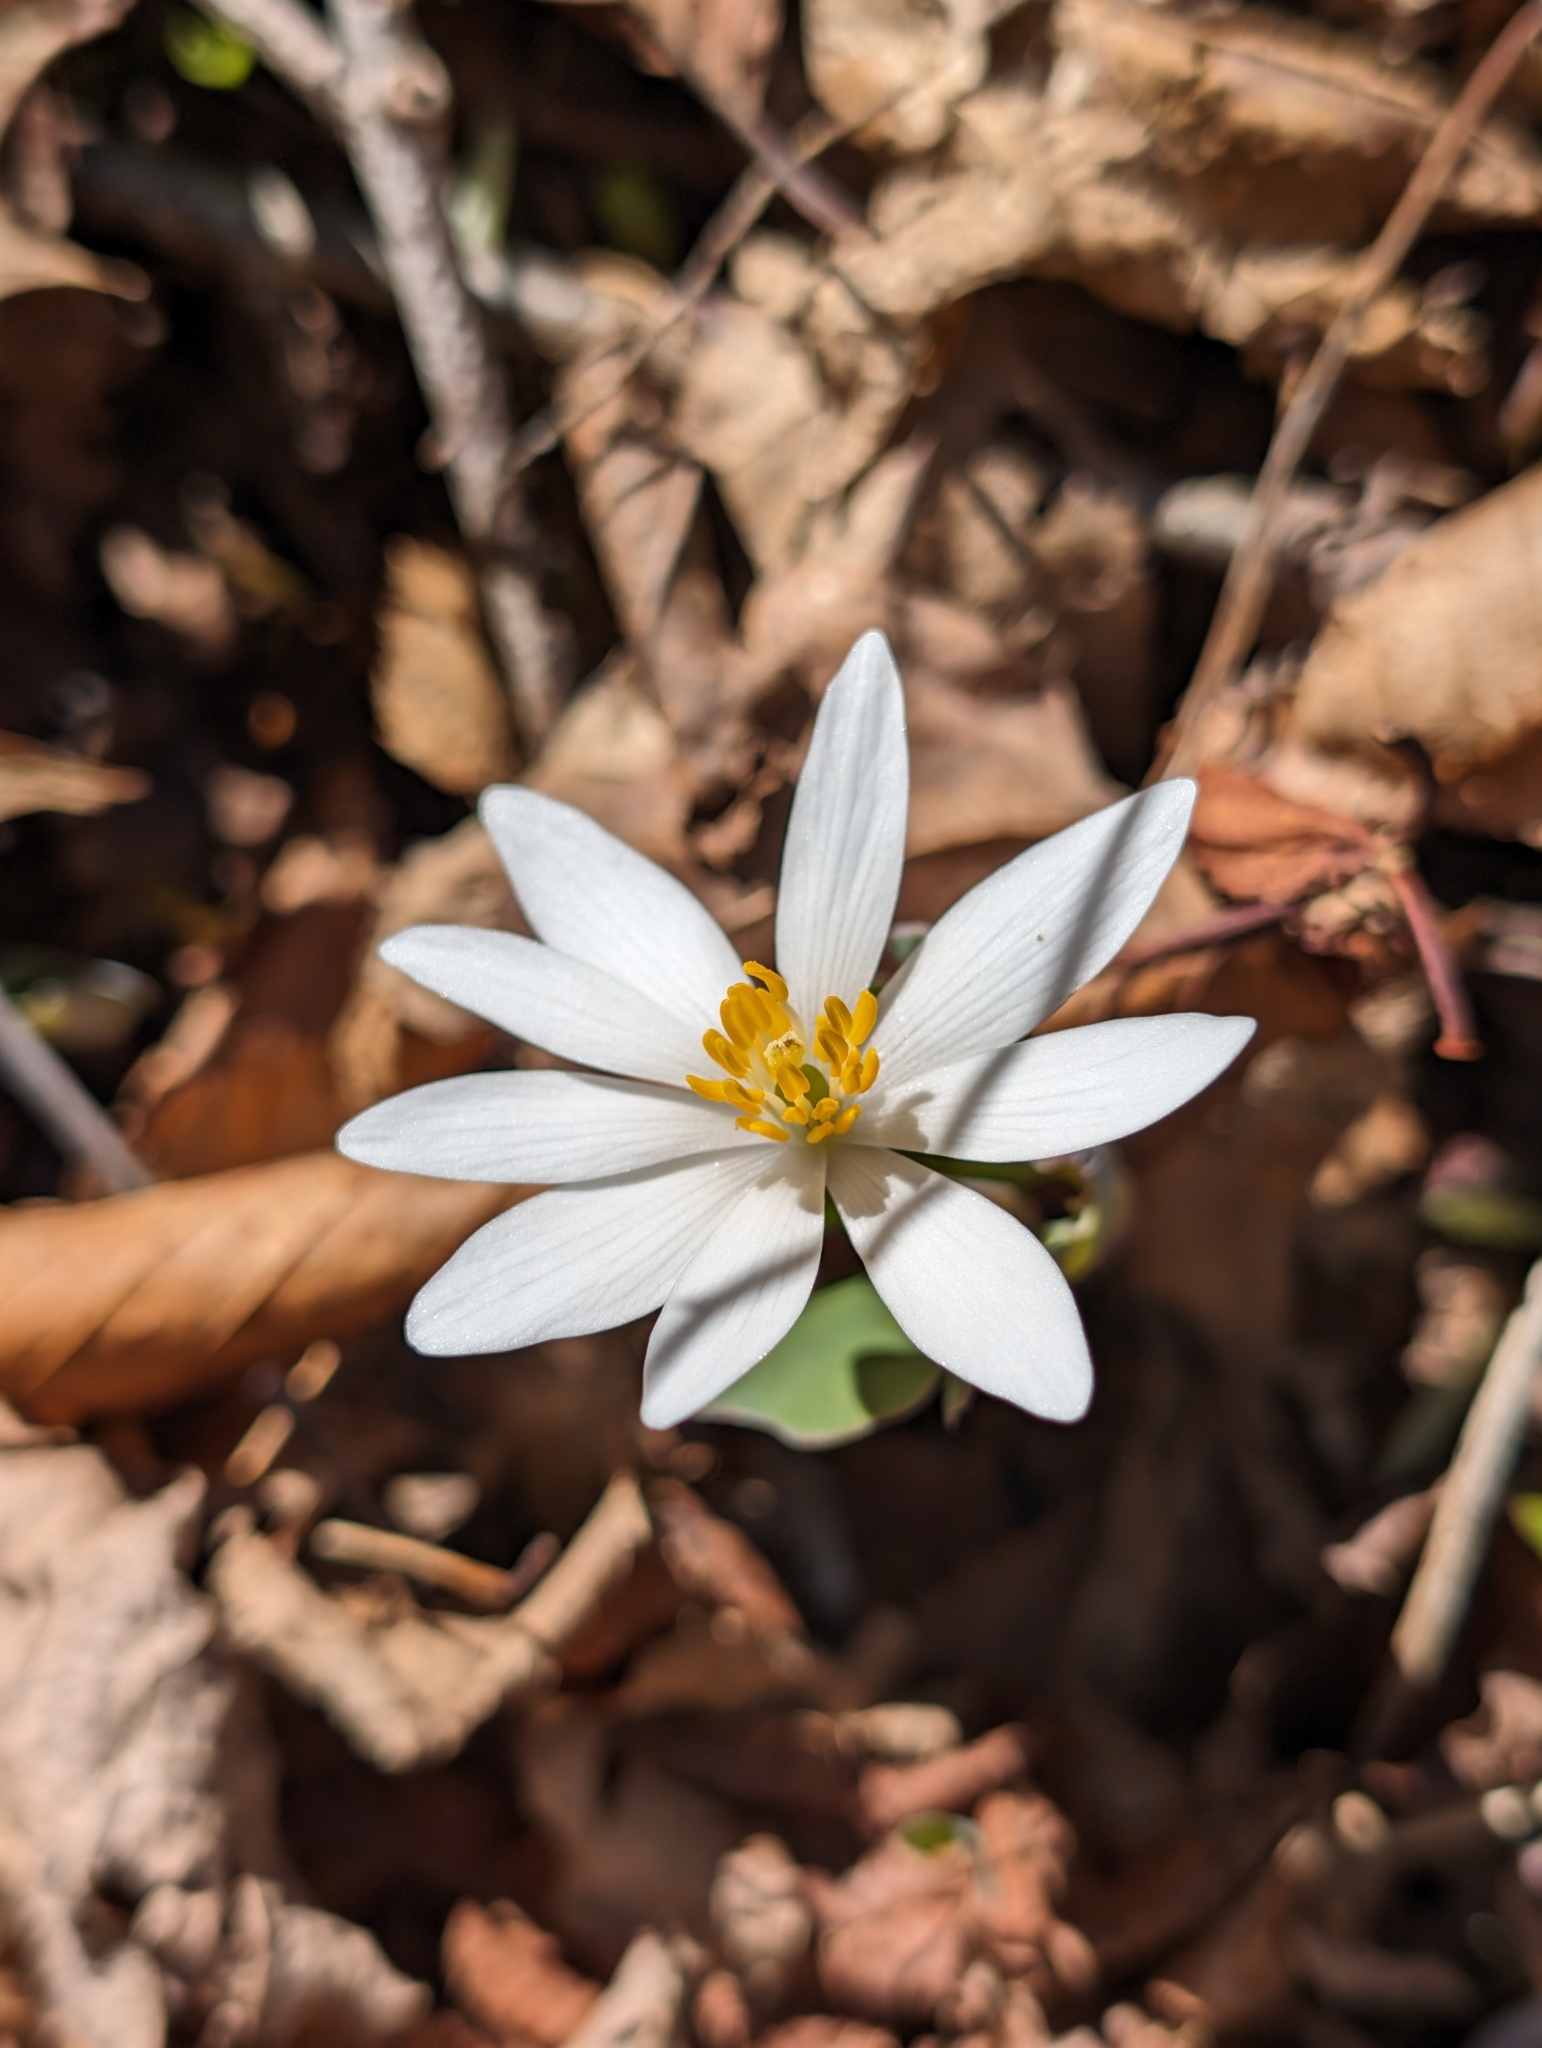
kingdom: Plantae
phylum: Tracheophyta
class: Magnoliopsida
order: Ranunculales
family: Papaveraceae
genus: Sanguinaria
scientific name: Sanguinaria canadensis
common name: Bloodroot
